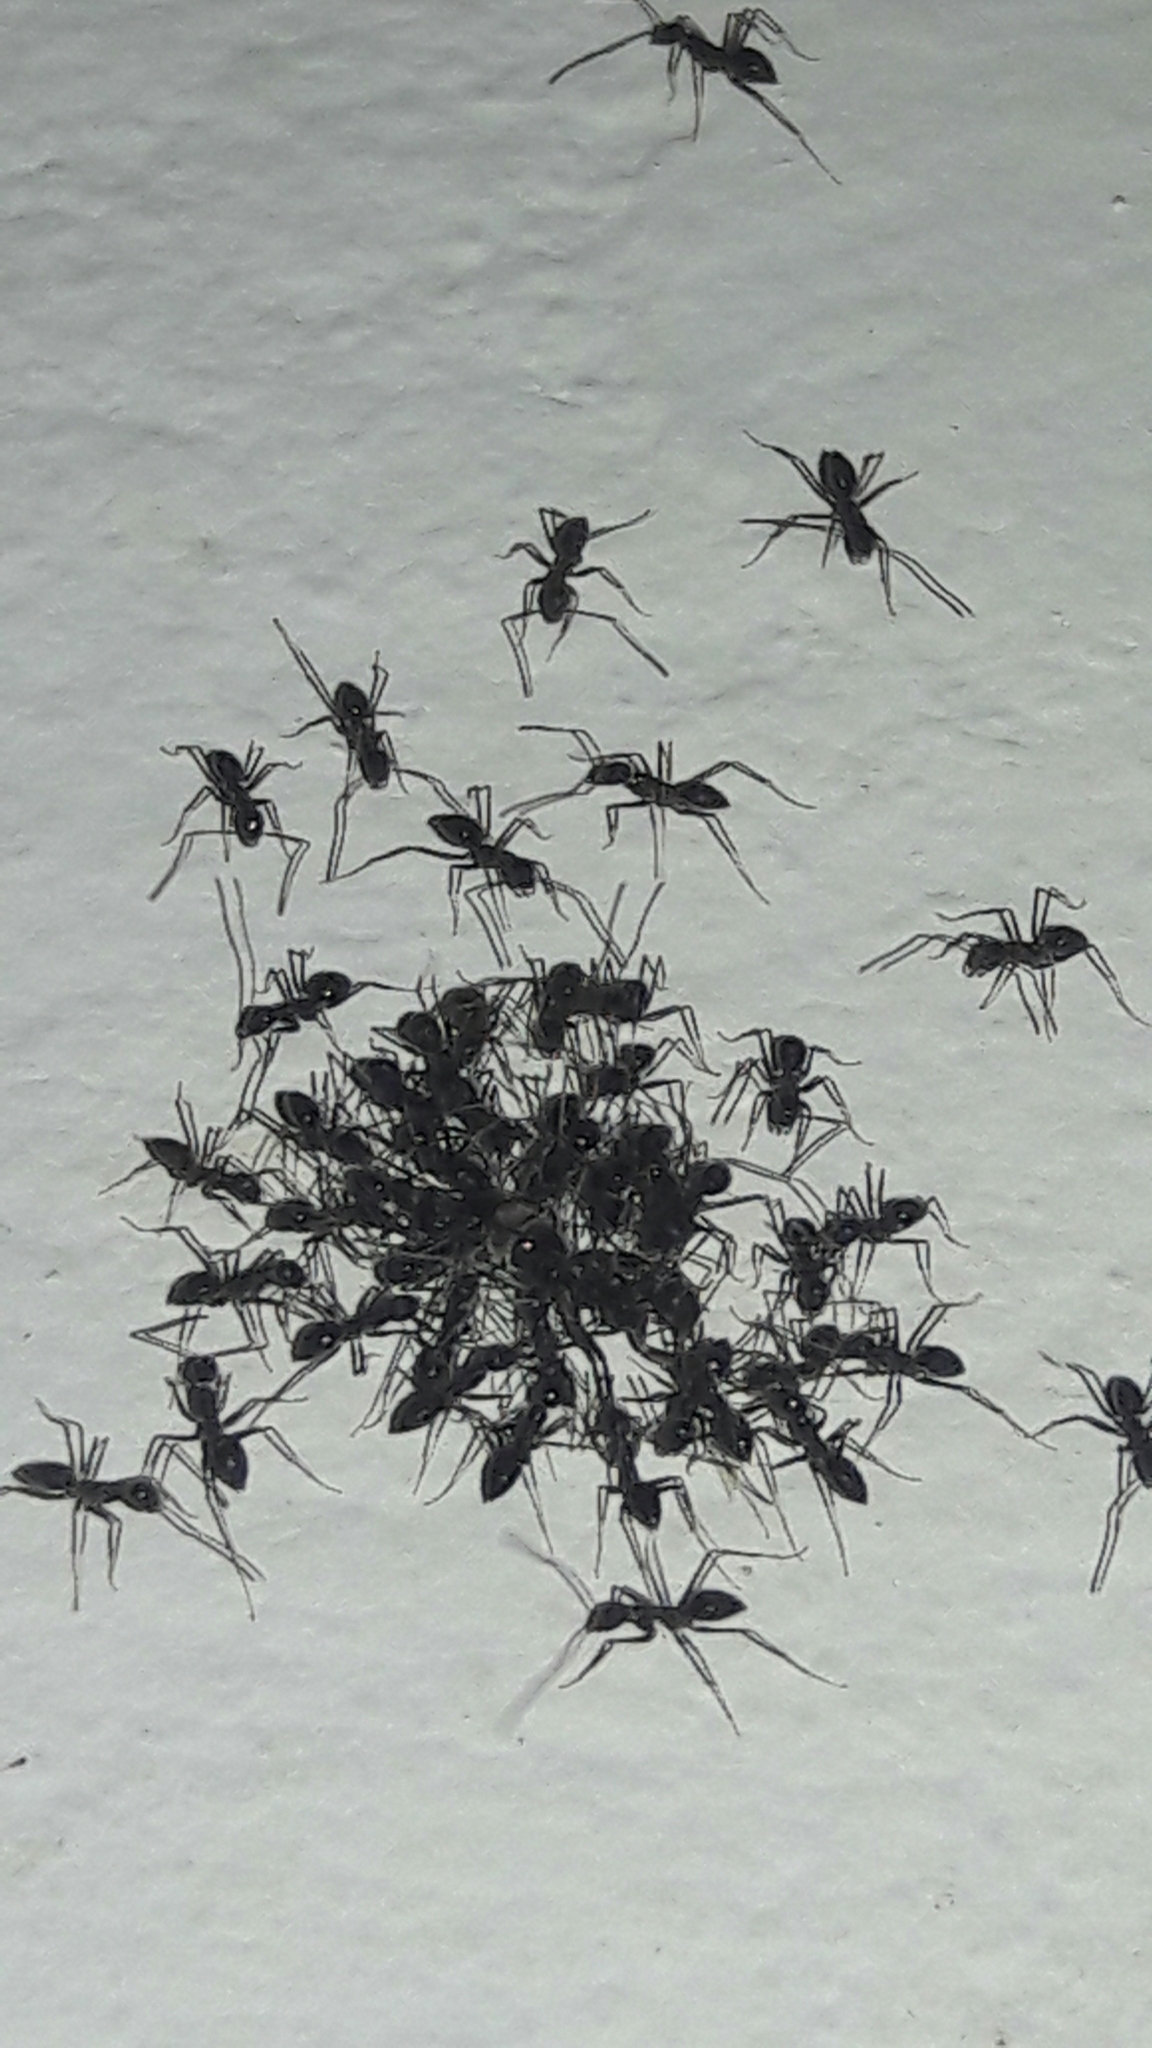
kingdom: Animalia
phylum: Arthropoda
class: Insecta
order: Hymenoptera
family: Formicidae
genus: Paratrechina
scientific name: Paratrechina longicornis
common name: Longhorned crazy ant
